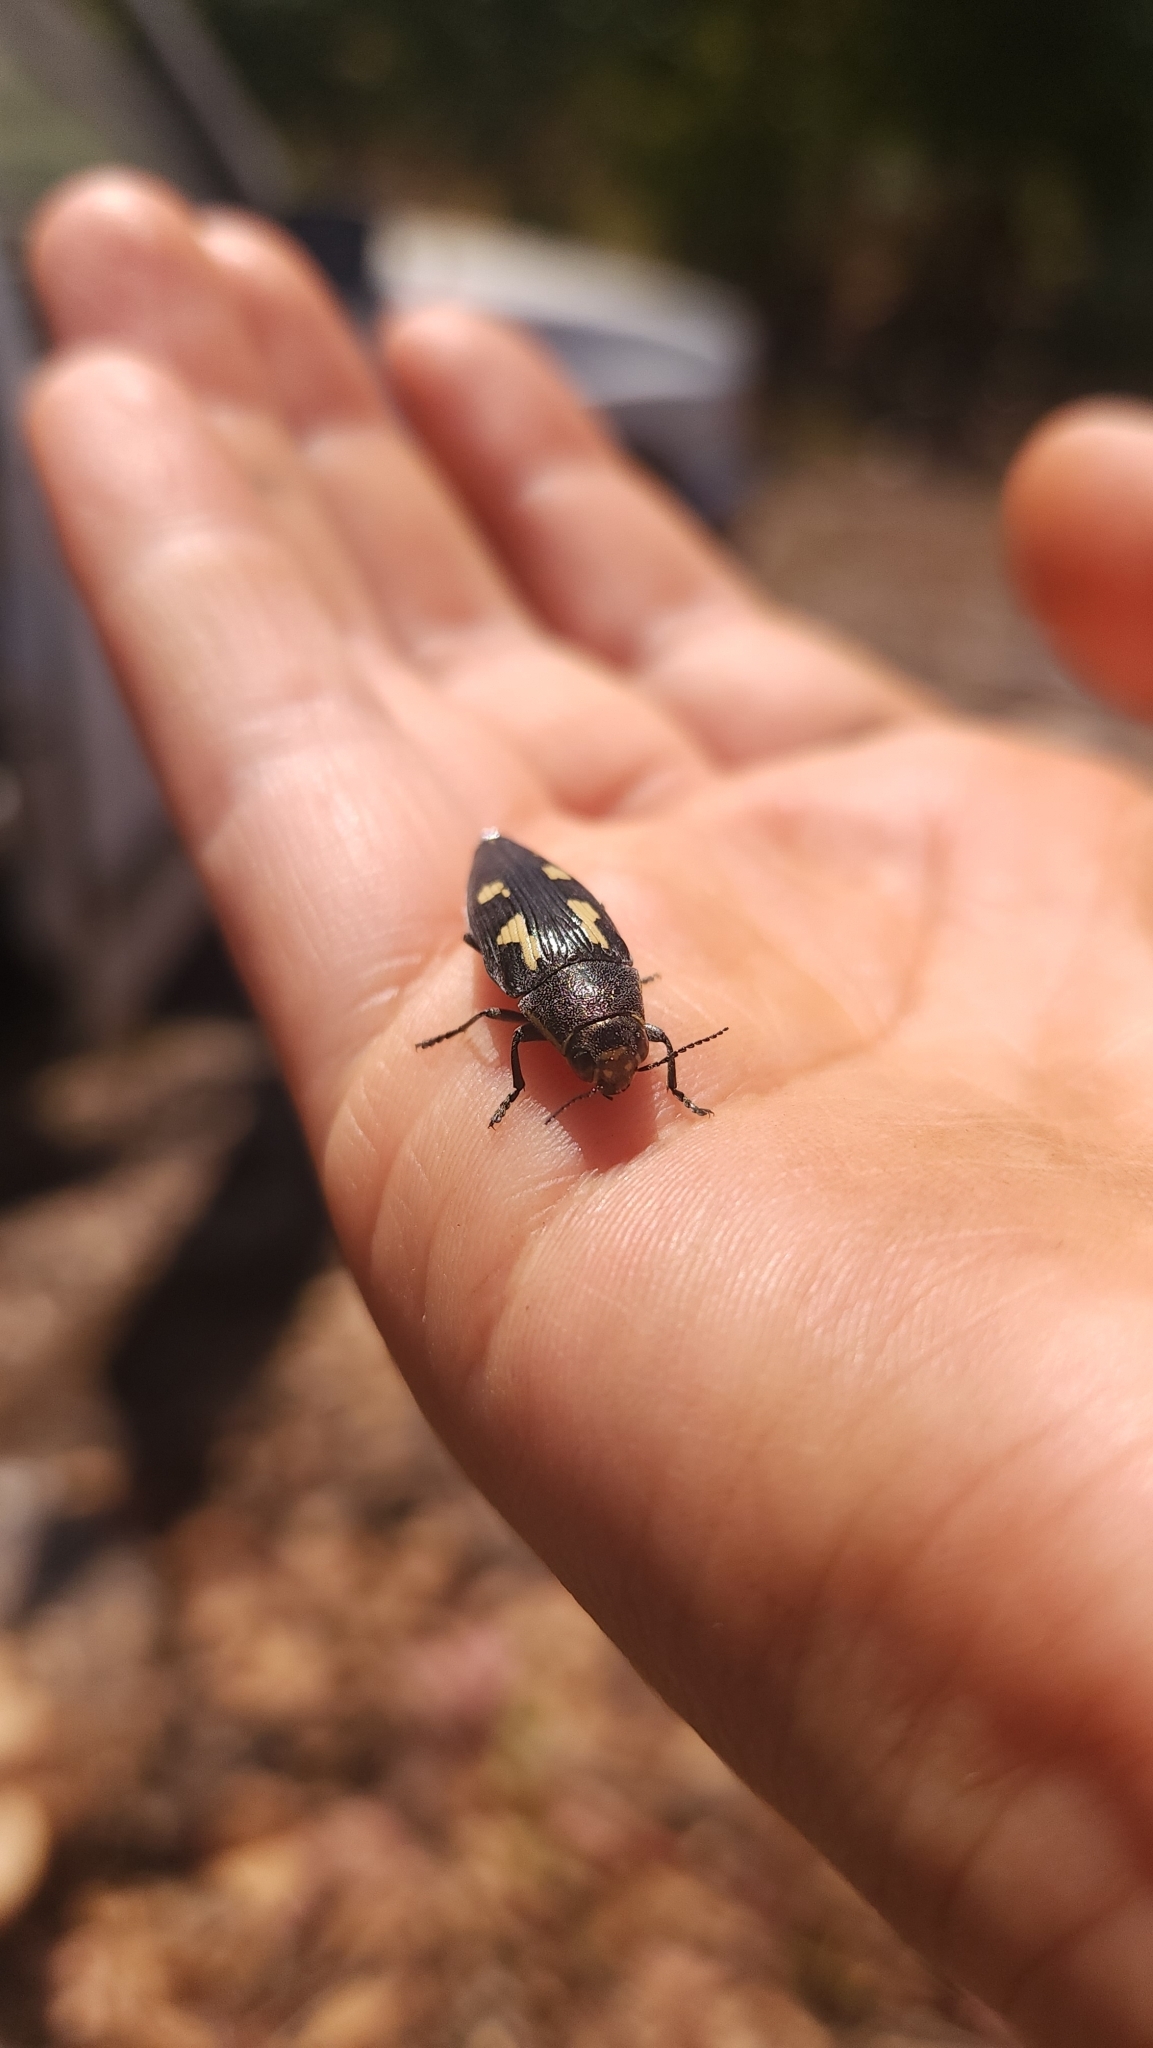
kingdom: Animalia
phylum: Arthropoda
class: Insecta
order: Coleoptera
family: Buprestidae
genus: Buprestis
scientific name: Buprestis novemmaculata
